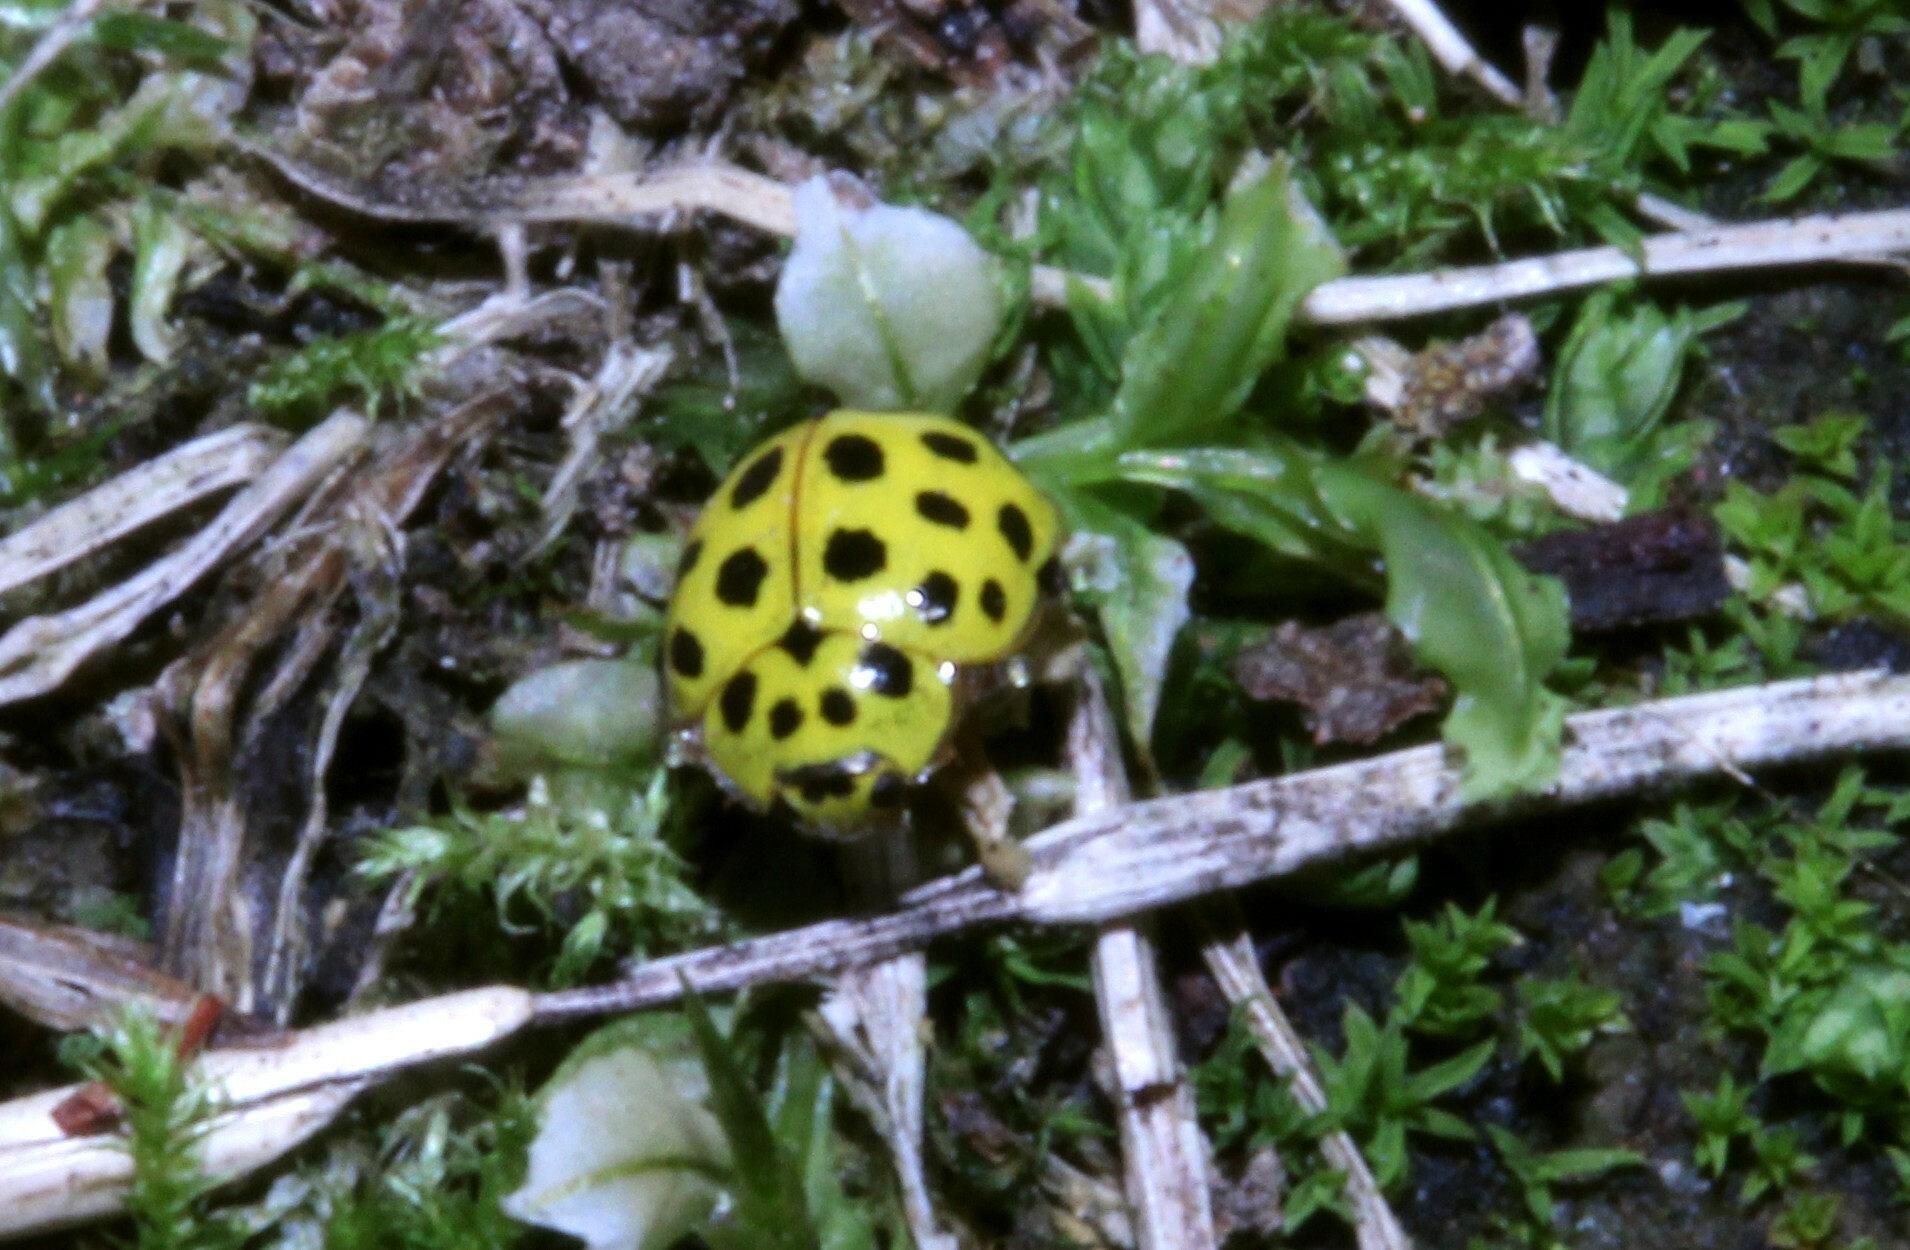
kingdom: Animalia
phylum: Arthropoda
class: Insecta
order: Coleoptera
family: Coccinellidae
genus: Psyllobora
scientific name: Psyllobora vigintiduopunctata
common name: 22-spot ladybird
